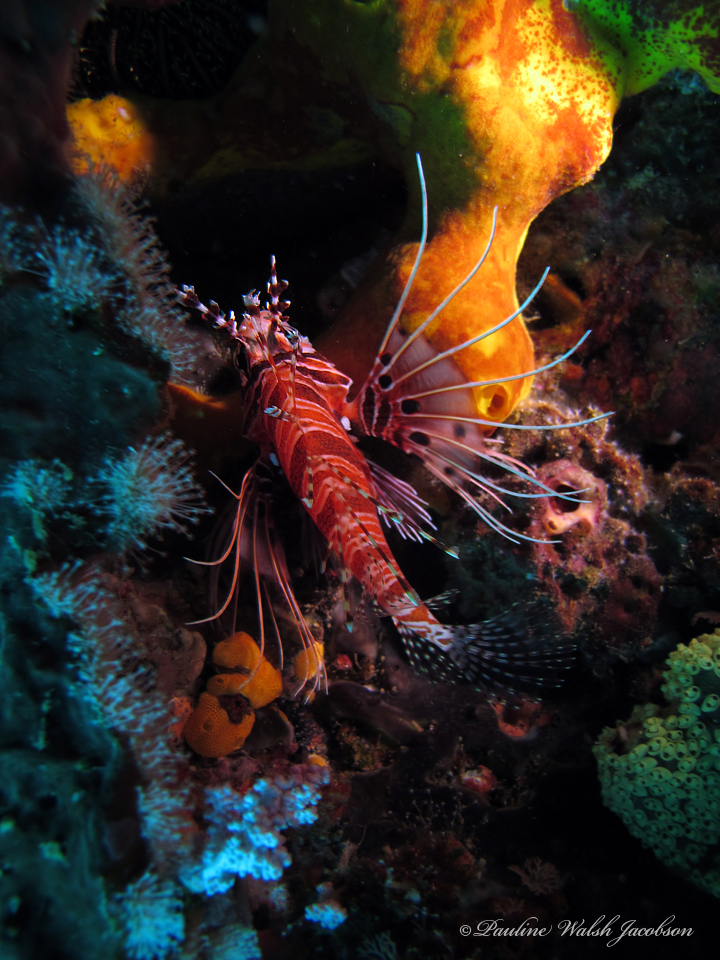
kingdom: Animalia
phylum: Chordata
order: Scorpaeniformes
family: Scorpaenidae
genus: Pterois
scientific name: Pterois antennata
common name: Spotfin lionfish
